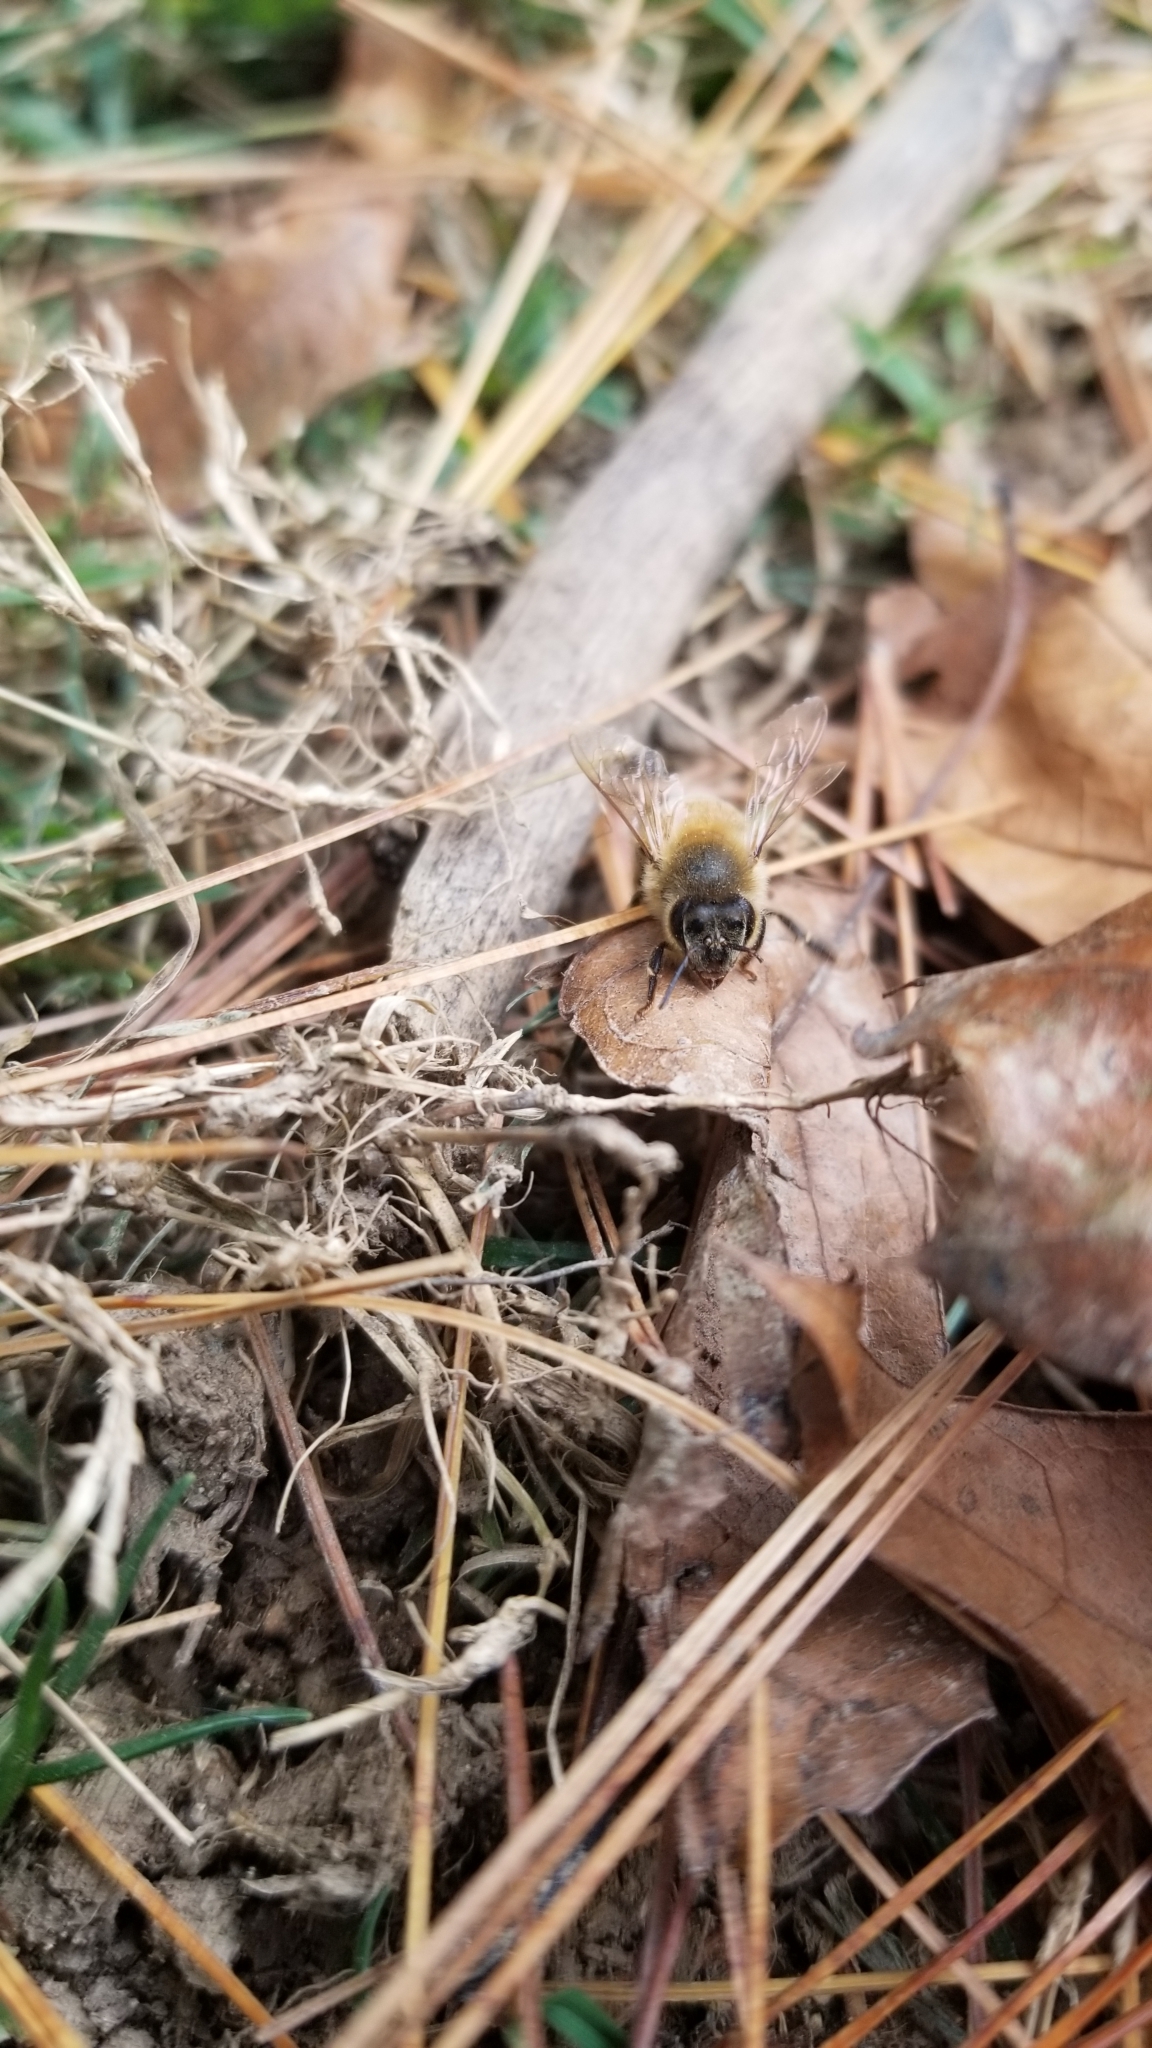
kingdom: Animalia
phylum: Arthropoda
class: Insecta
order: Hymenoptera
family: Apidae
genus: Apis
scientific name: Apis mellifera
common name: Honey bee
